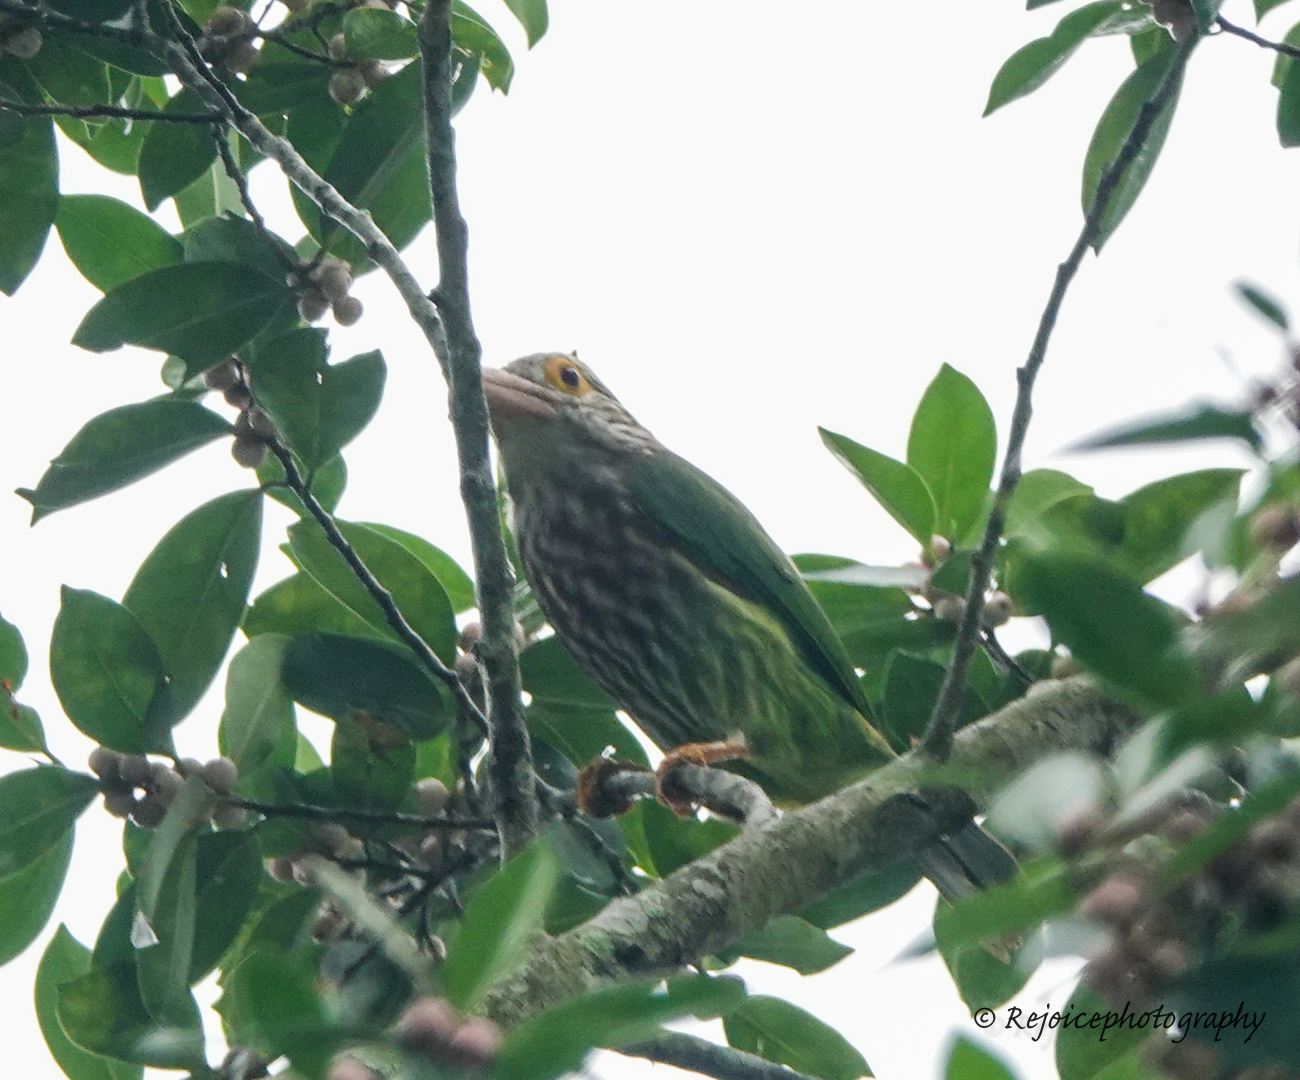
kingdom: Animalia
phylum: Chordata
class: Aves
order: Piciformes
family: Megalaimidae
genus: Psilopogon
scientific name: Psilopogon lineatus
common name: Lineated barbet
